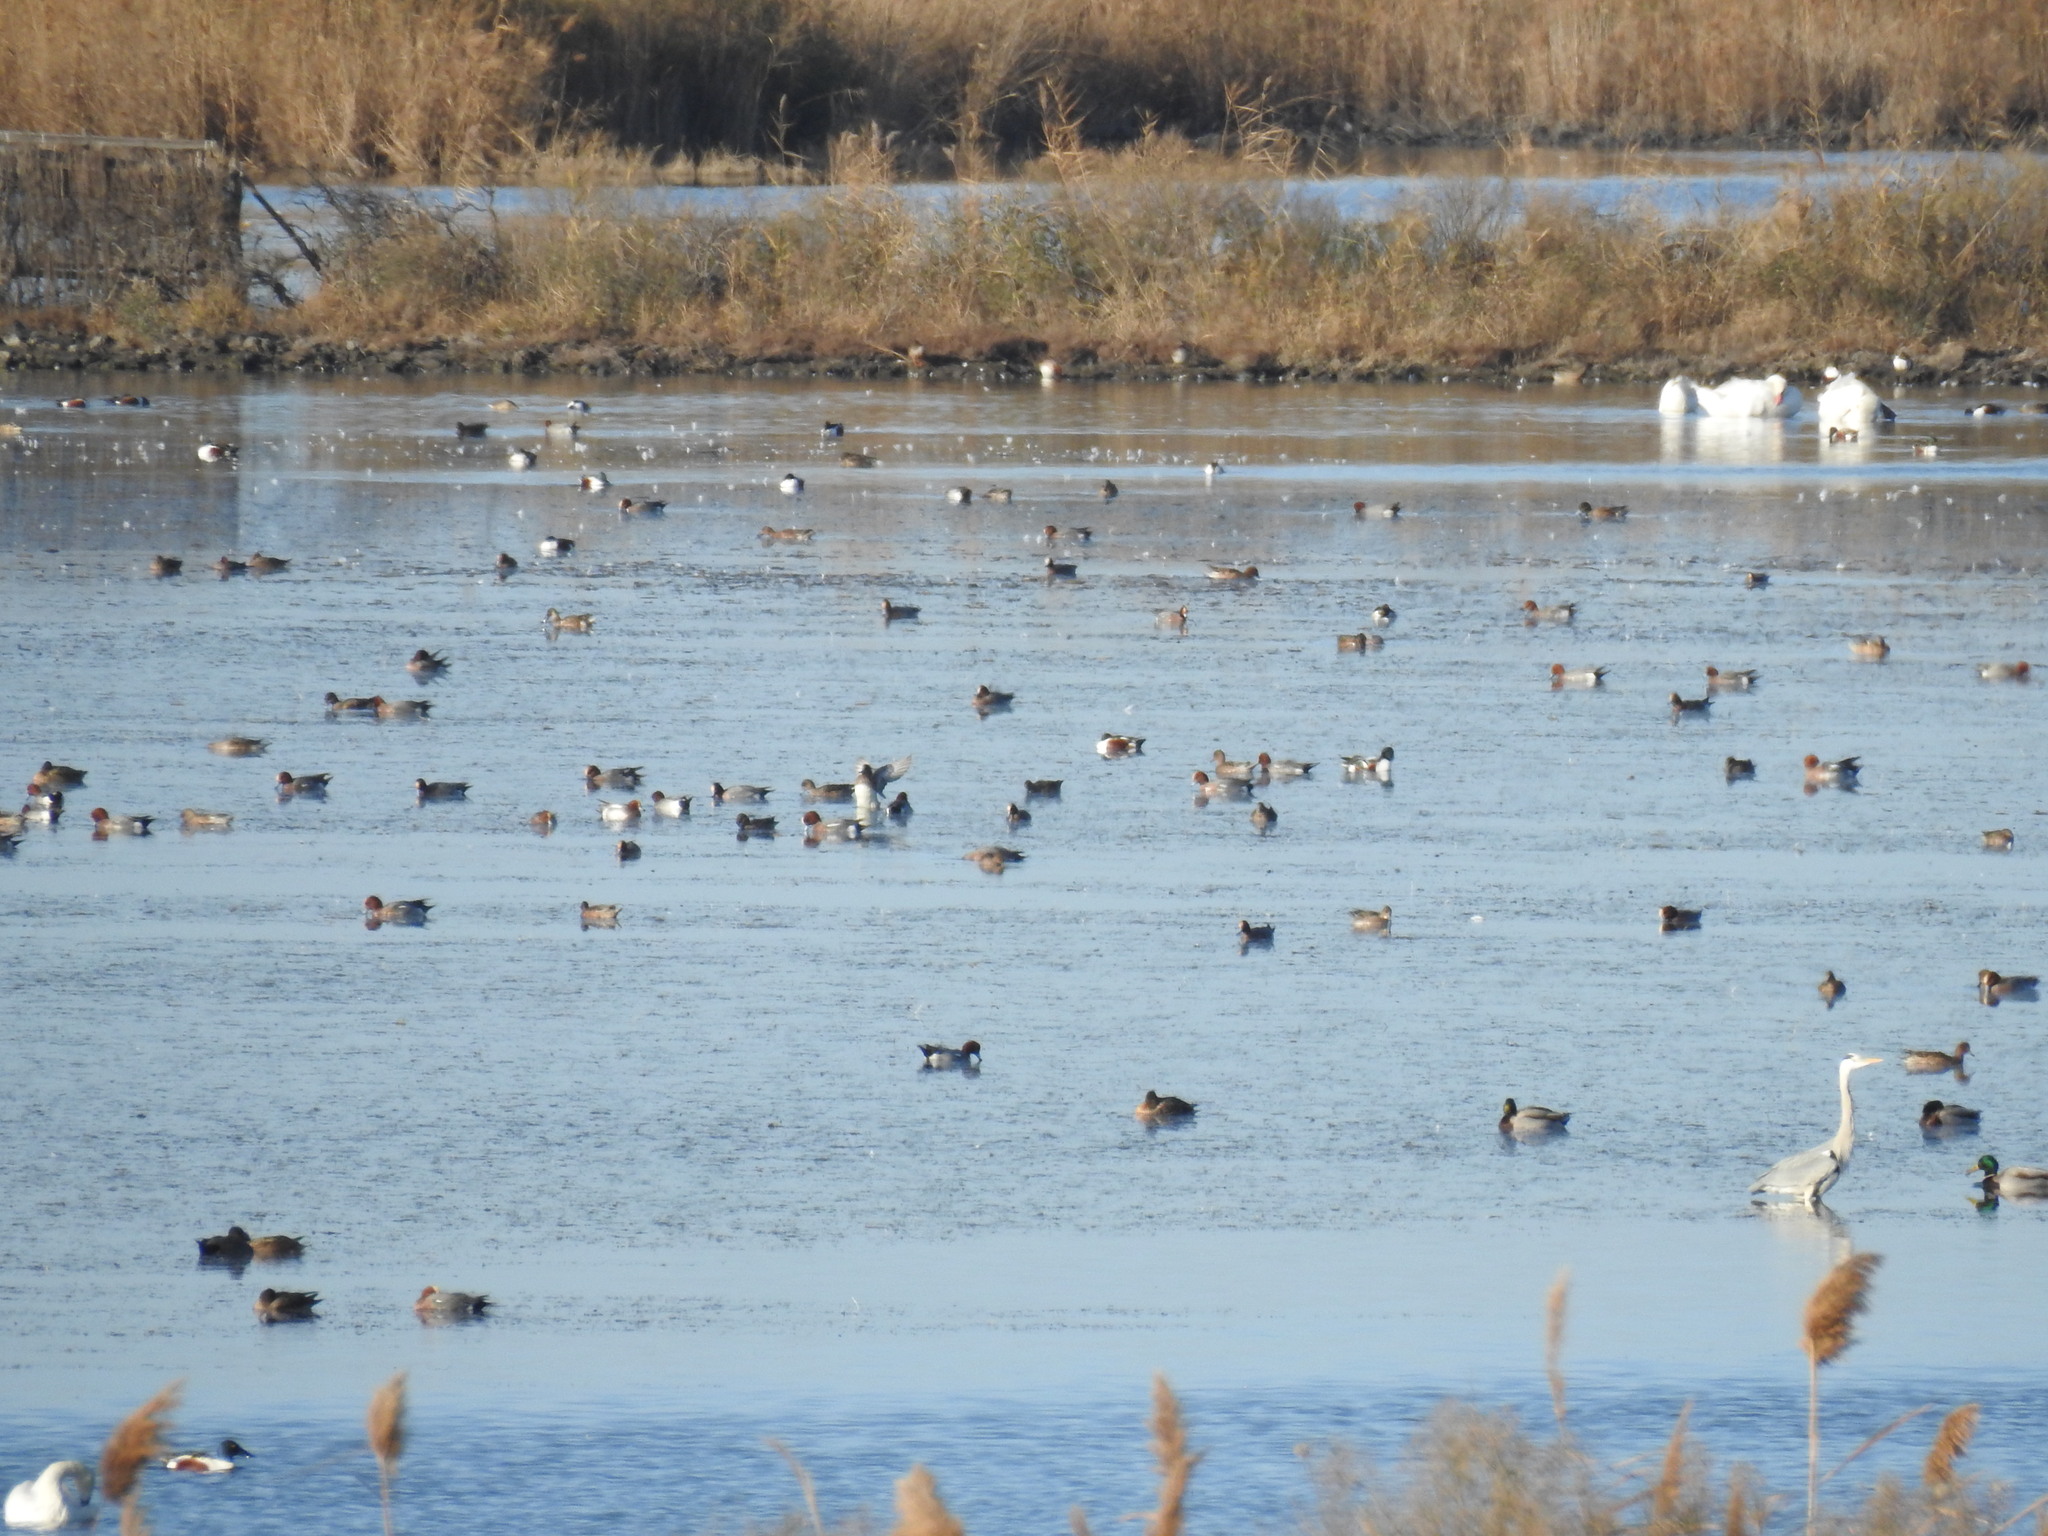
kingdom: Animalia
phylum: Chordata
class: Aves
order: Anseriformes
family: Anatidae
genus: Mareca
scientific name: Mareca penelope
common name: Eurasian wigeon
